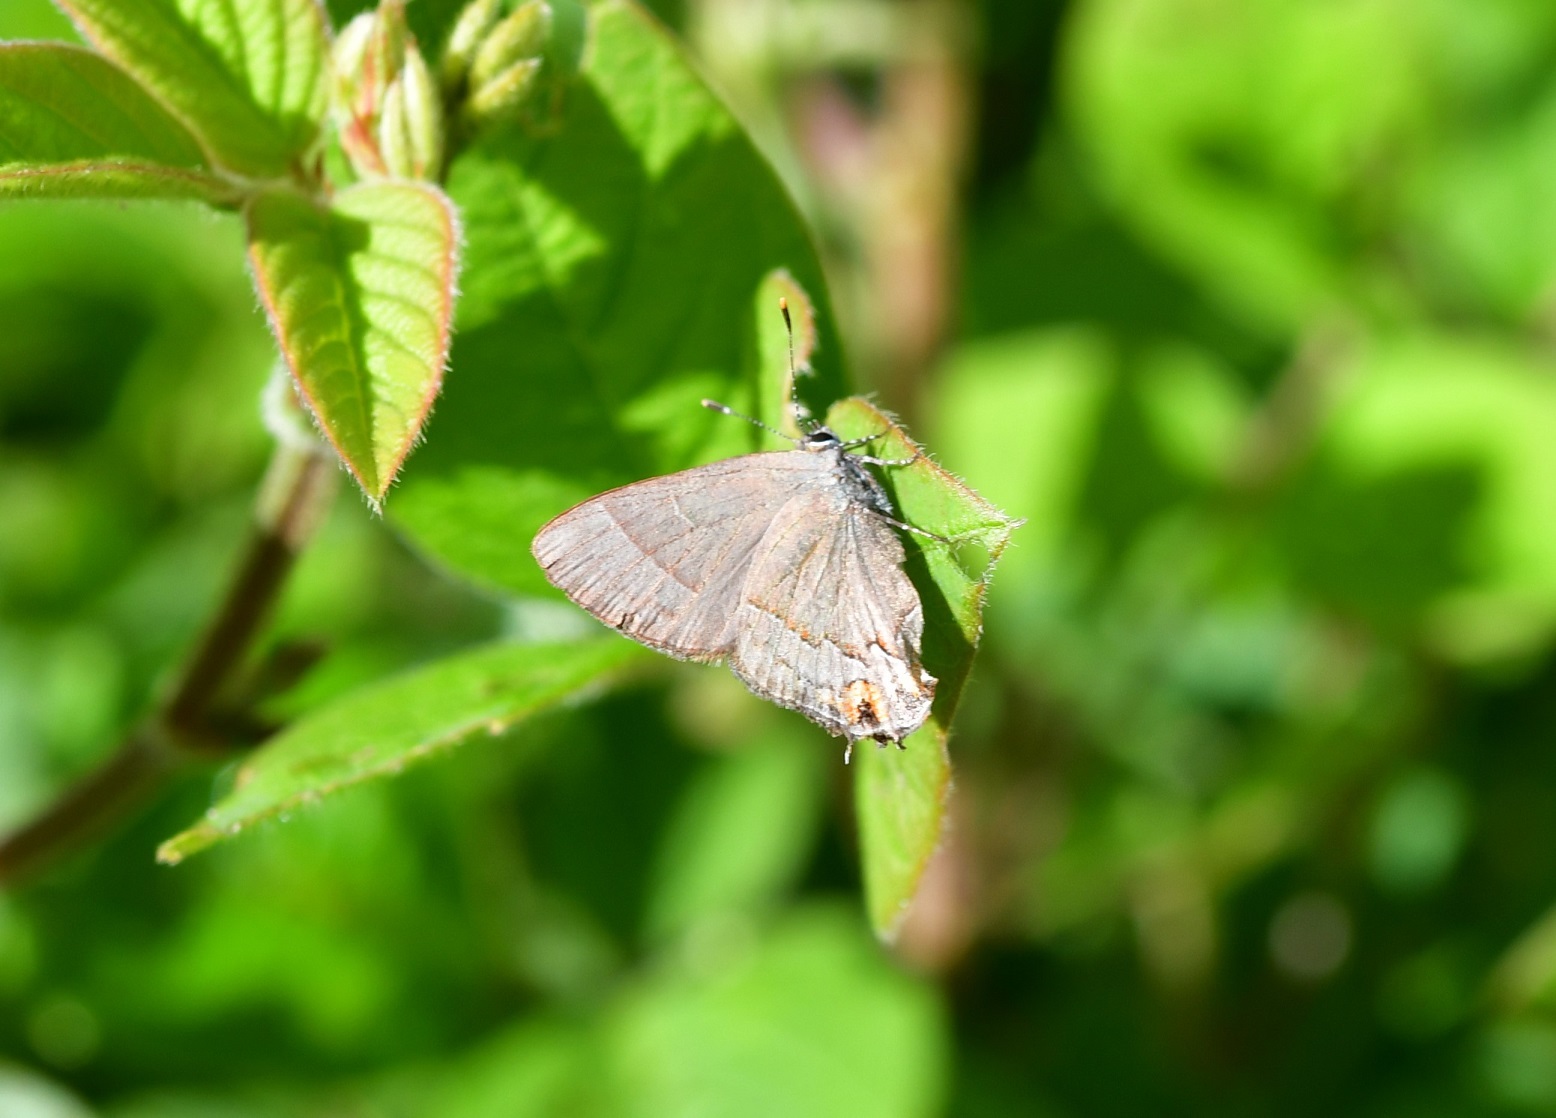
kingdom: Animalia
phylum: Arthropoda
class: Insecta
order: Lepidoptera
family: Lycaenidae
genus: Electrostrymon
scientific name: Electrostrymon denarius
